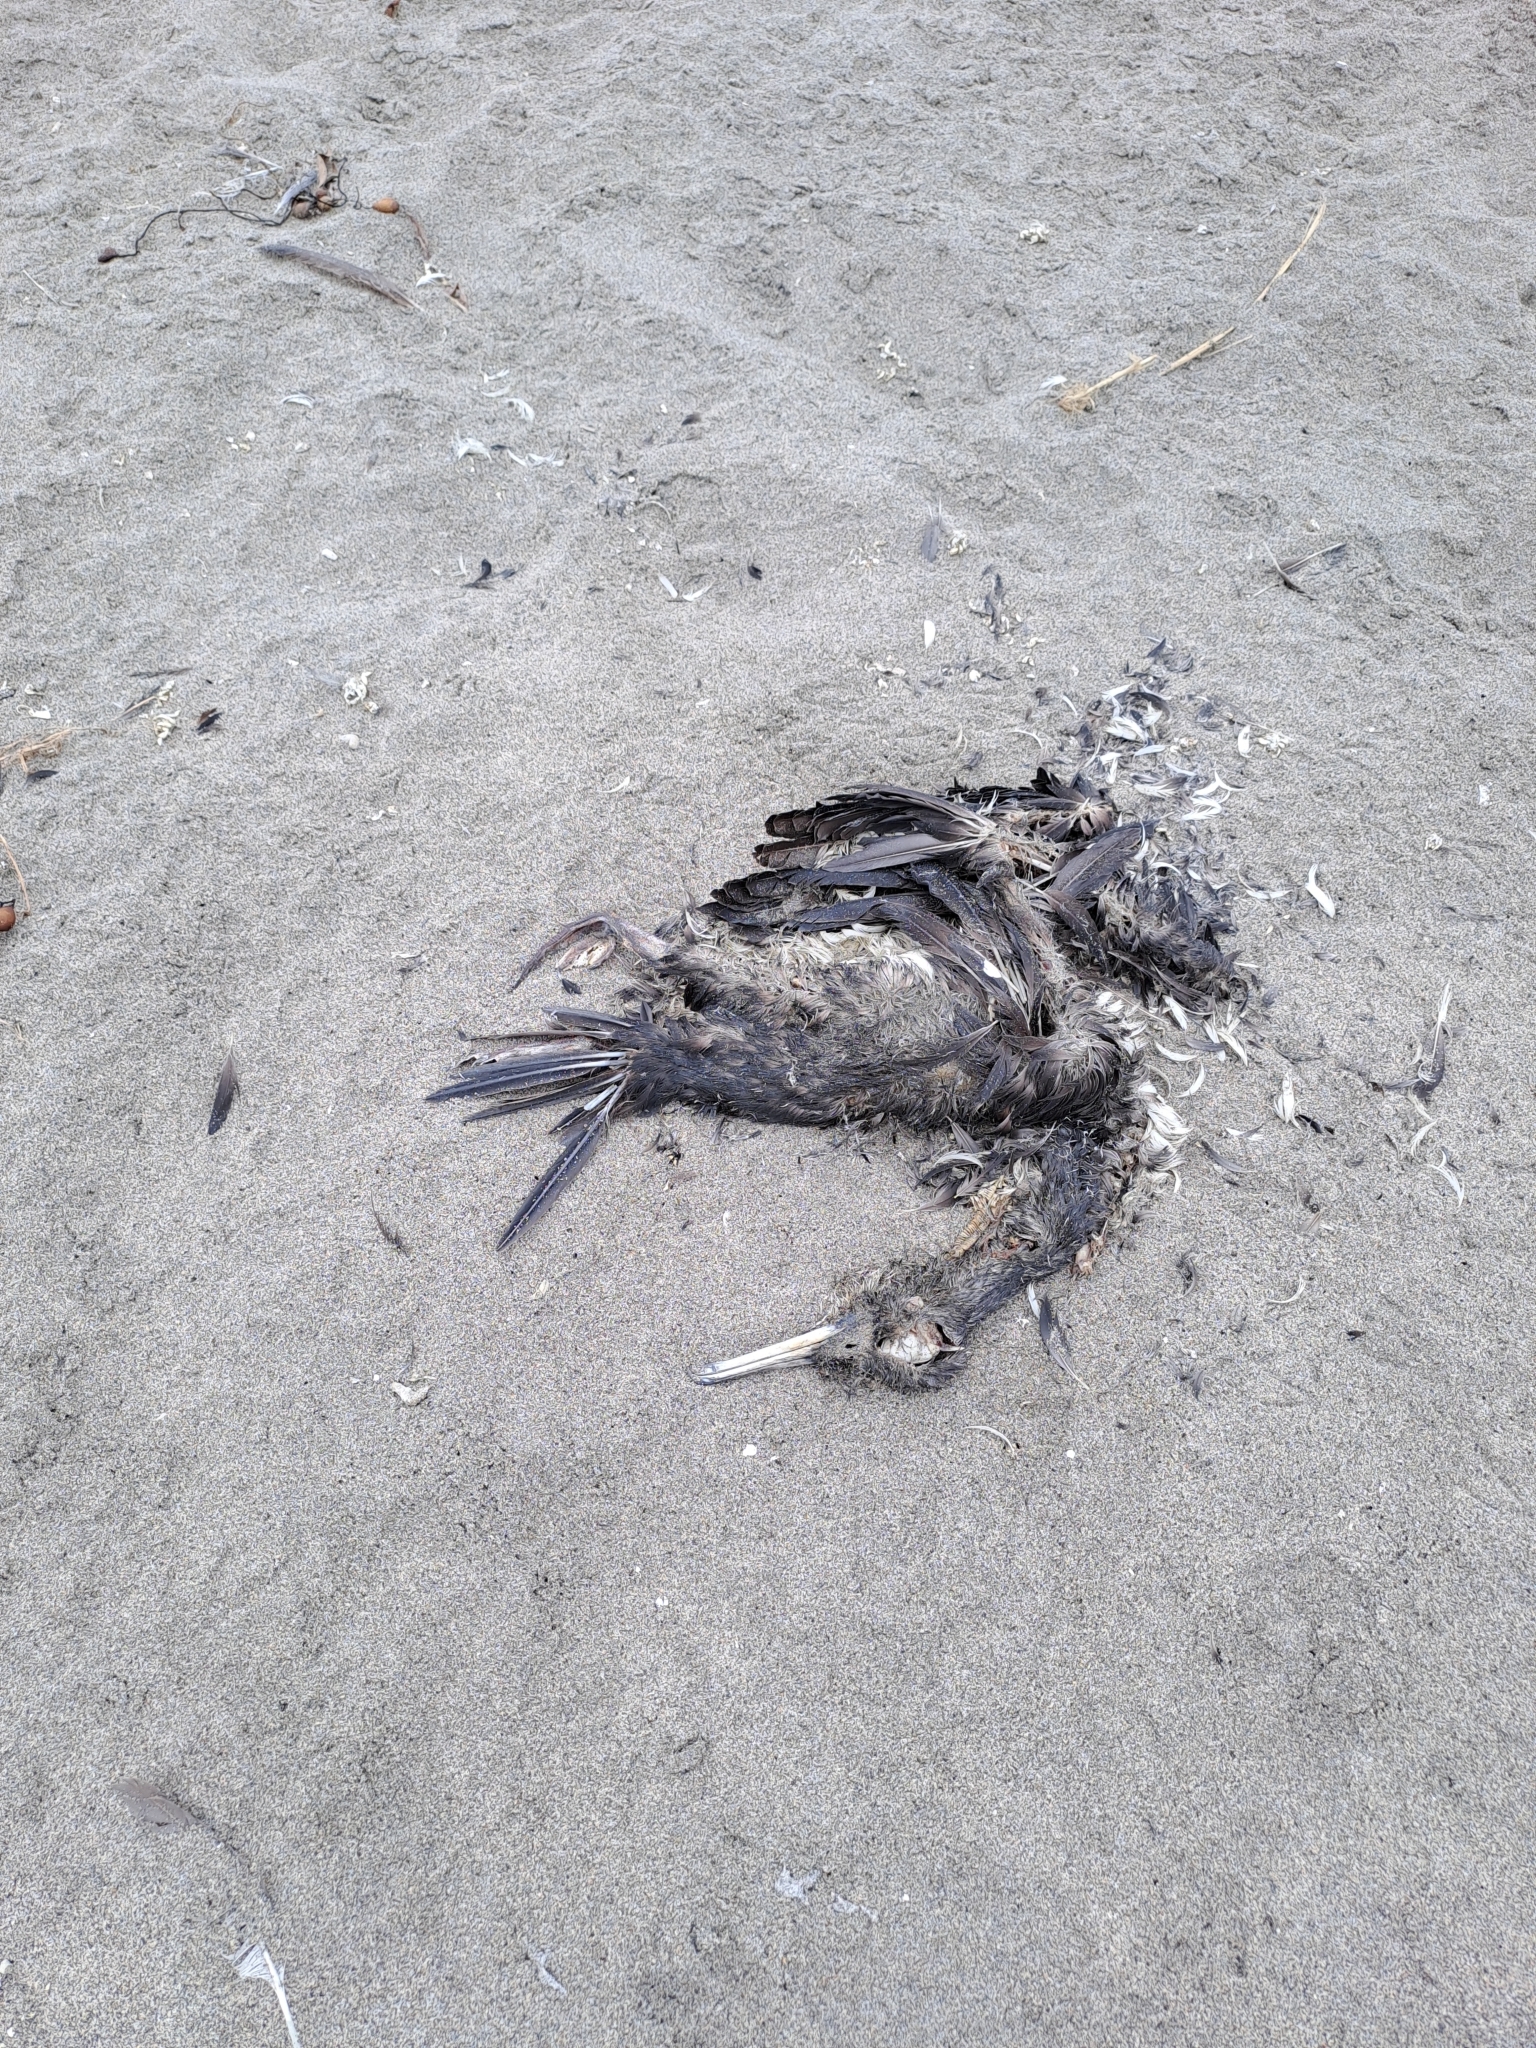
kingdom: Animalia
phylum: Chordata
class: Aves
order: Suliformes
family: Phalacrocoracidae
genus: Leucocarbo
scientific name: Leucocarbo bougainvillii
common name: Guanay cormorant
